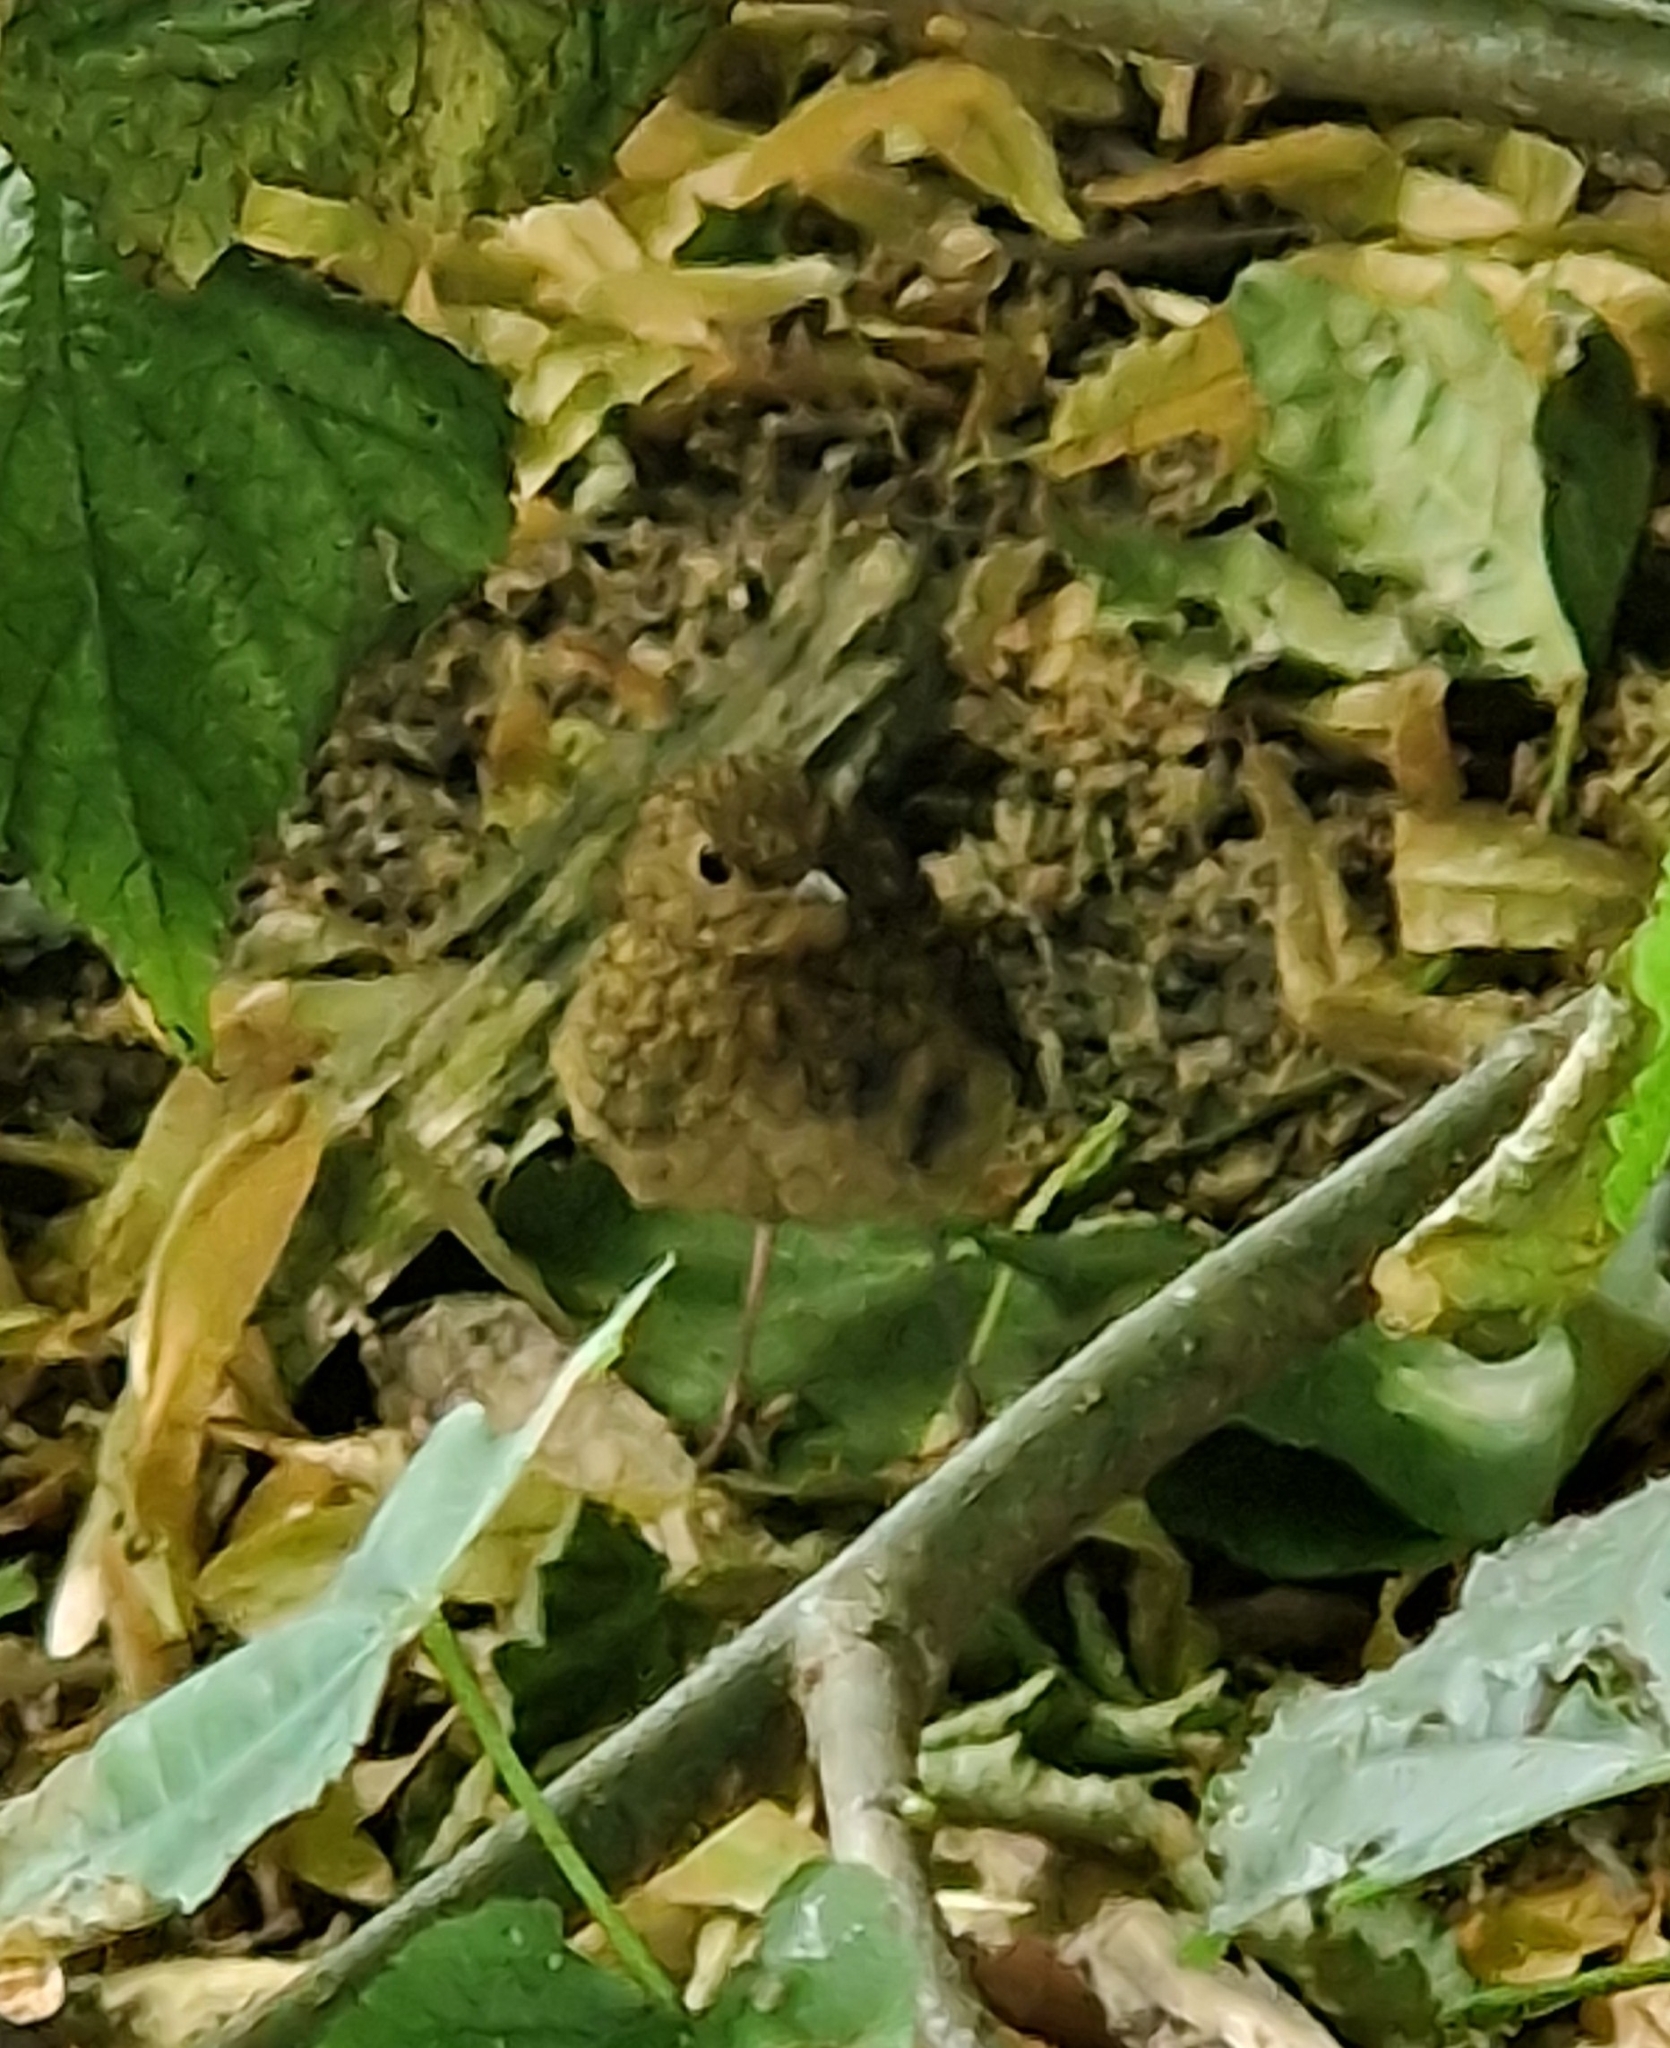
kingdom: Animalia
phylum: Chordata
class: Aves
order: Passeriformes
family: Muscicapidae
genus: Erithacus
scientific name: Erithacus rubecula
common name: European robin
